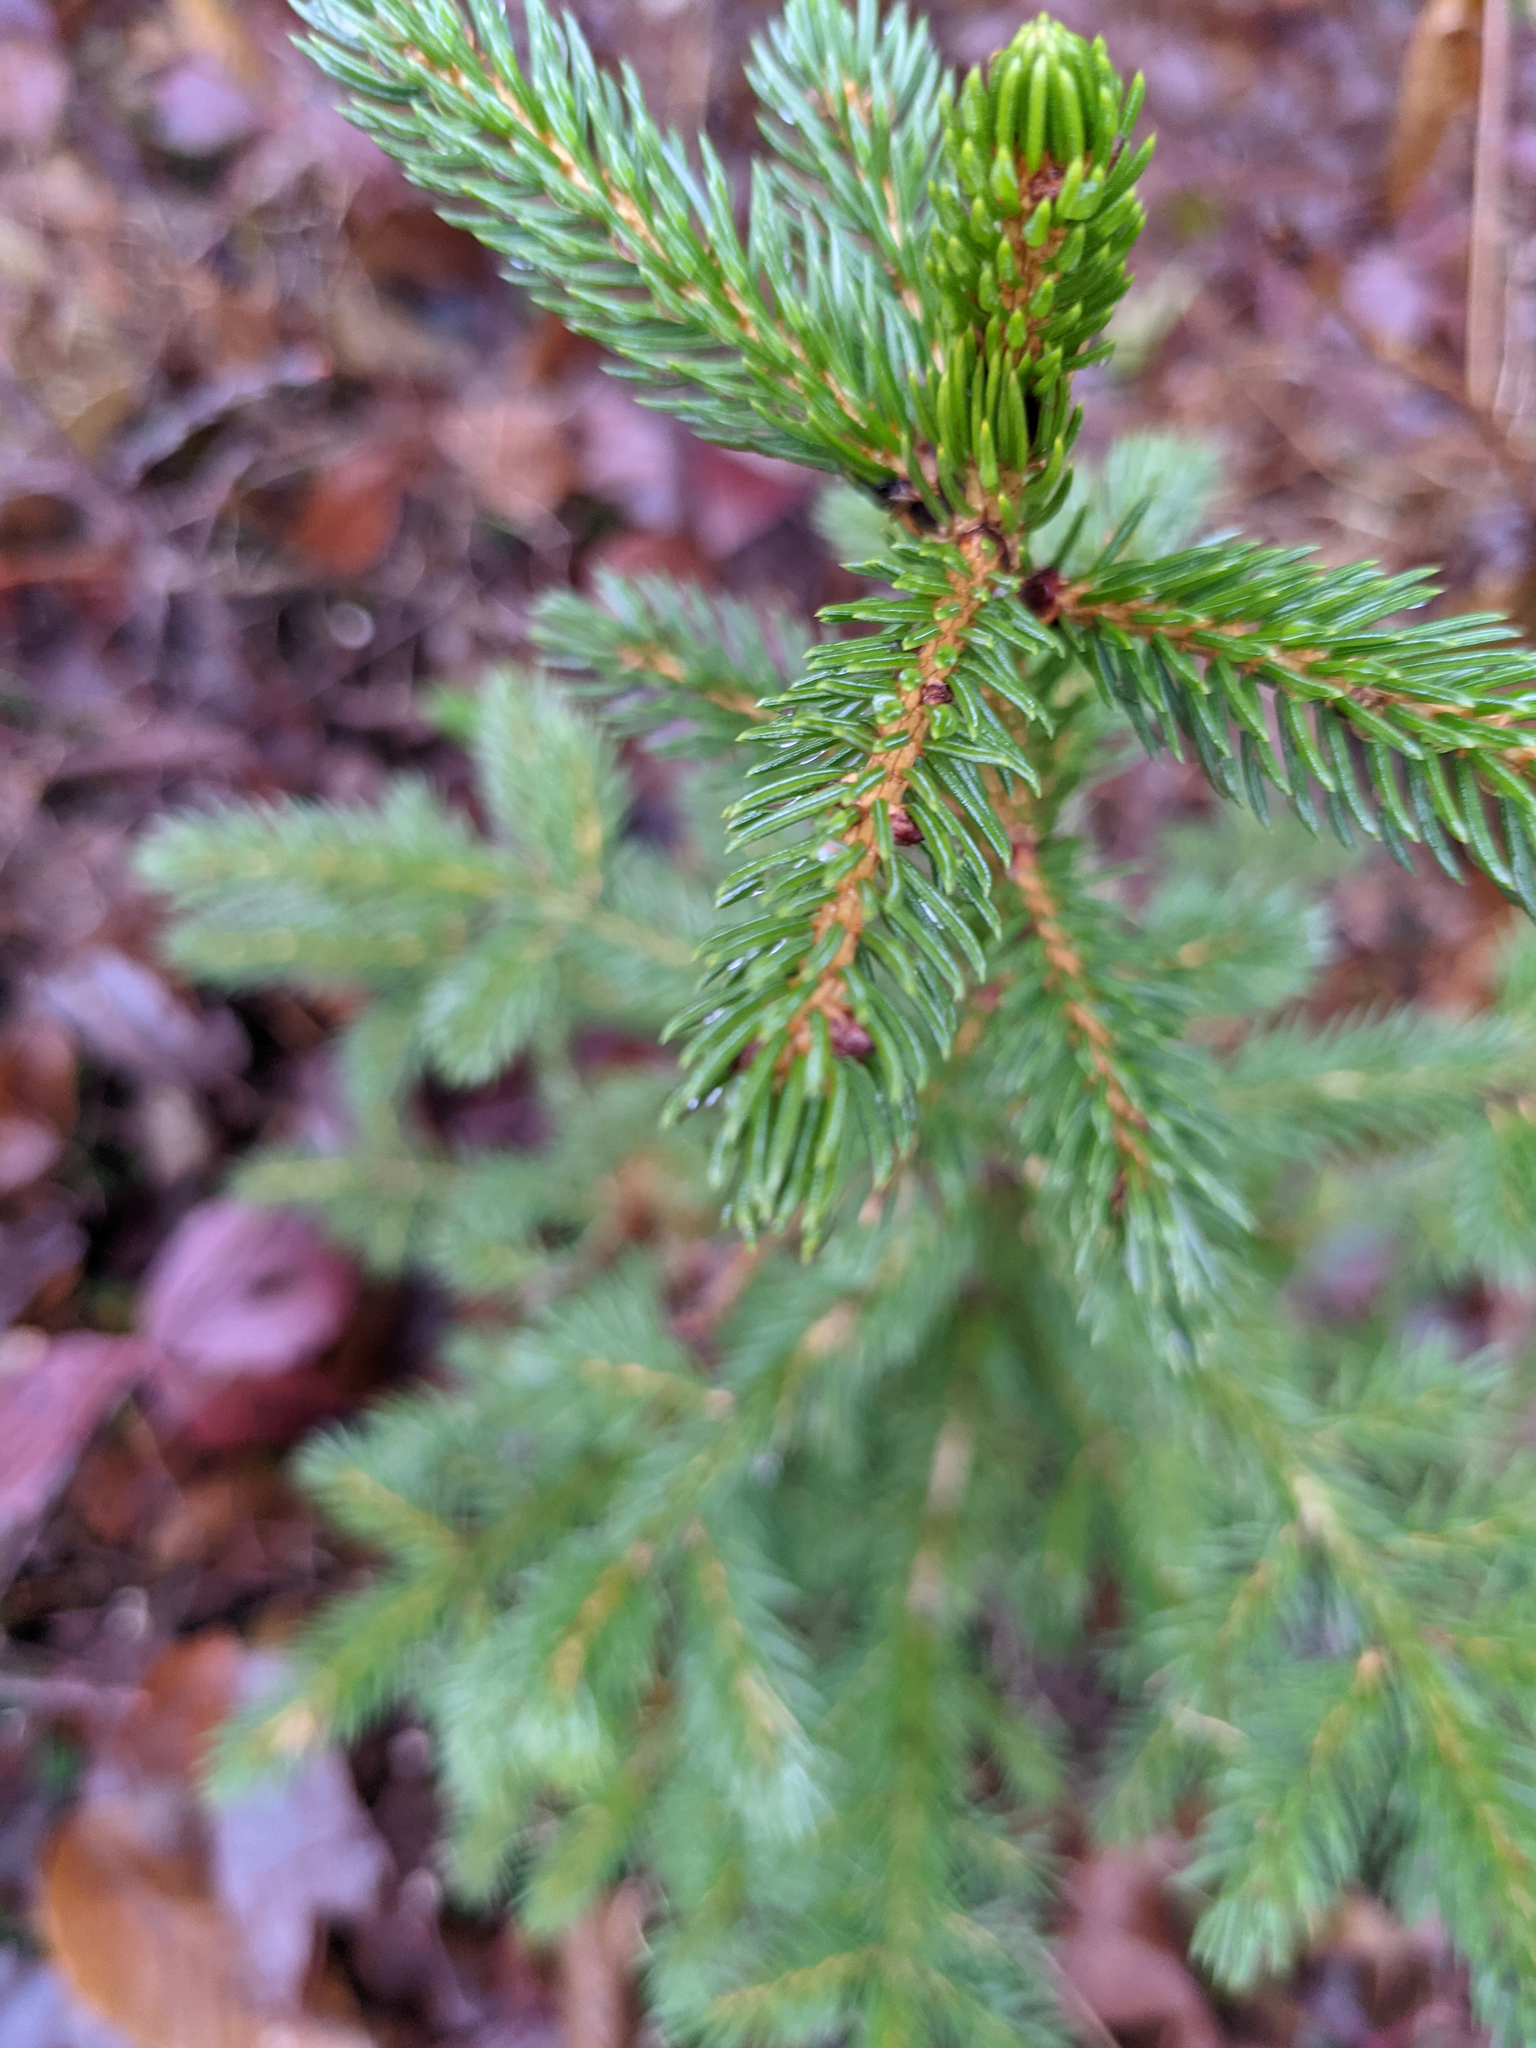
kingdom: Plantae
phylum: Tracheophyta
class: Pinopsida
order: Pinales
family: Pinaceae
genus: Picea
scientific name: Picea rubens
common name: Red spruce
